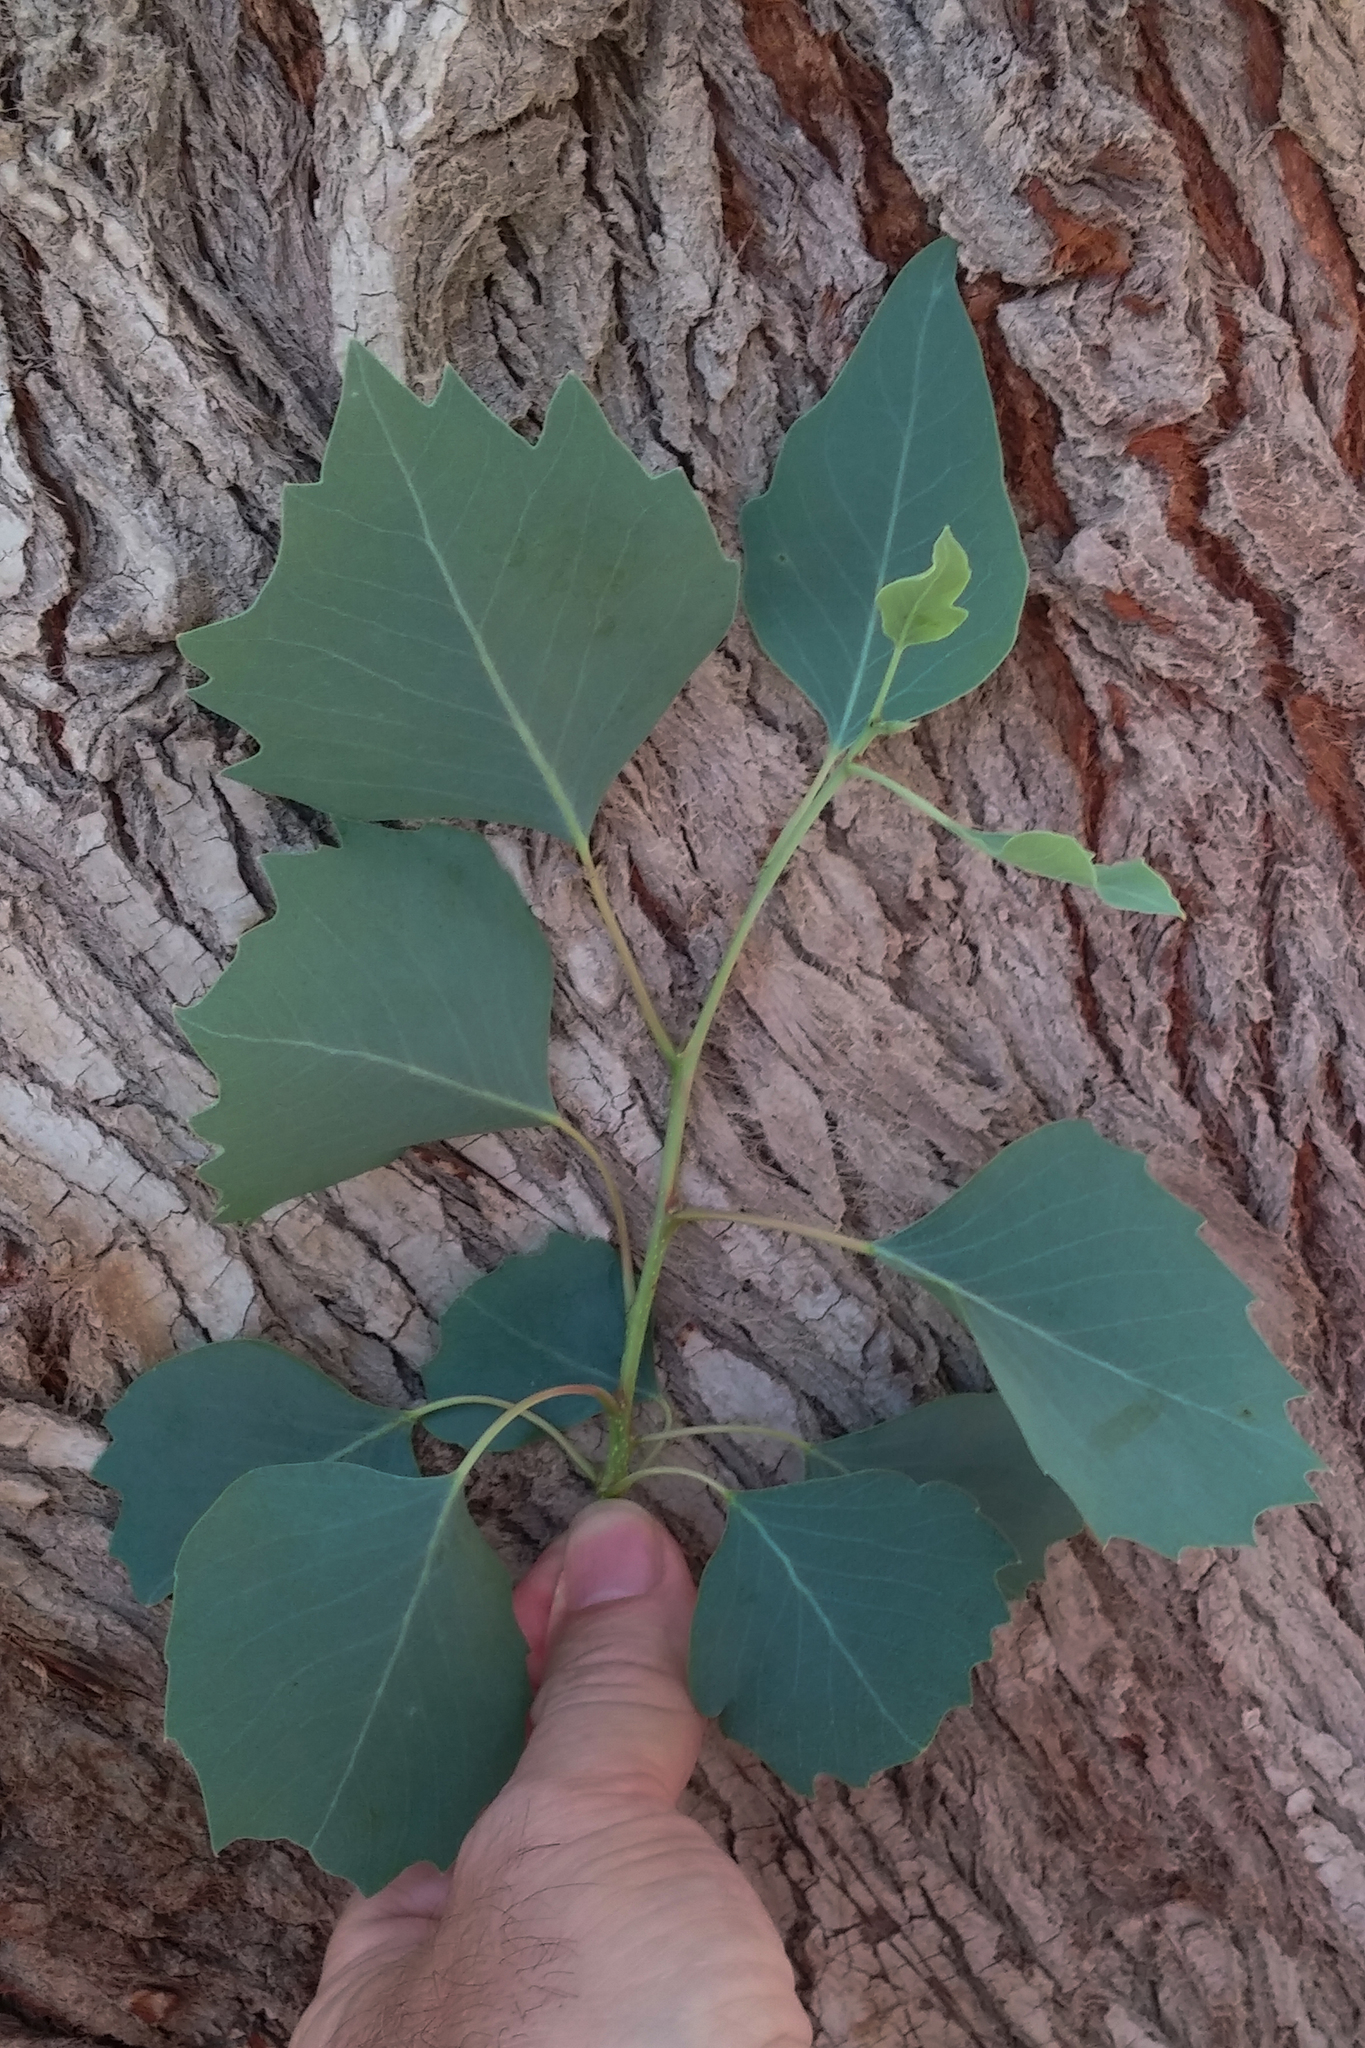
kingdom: Plantae
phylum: Tracheophyta
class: Magnoliopsida
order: Malpighiales
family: Salicaceae
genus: Populus
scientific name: Populus euphratica
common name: Euphrates poplar
